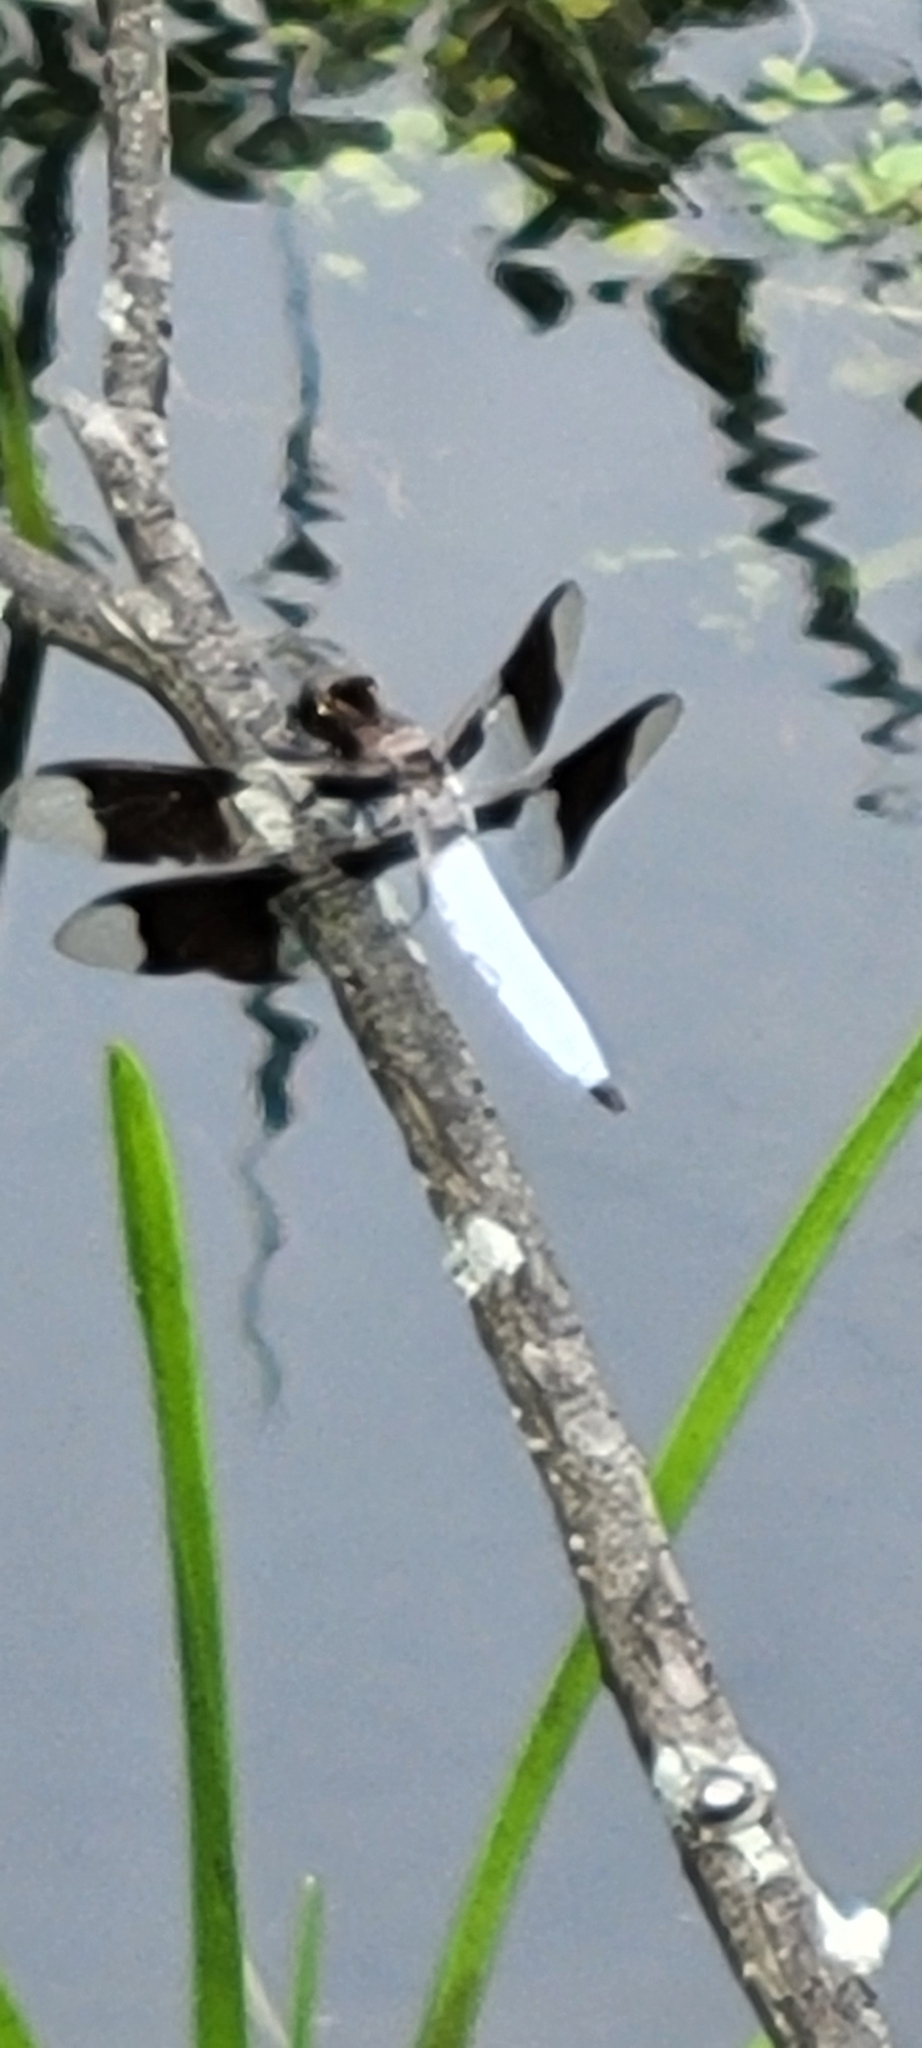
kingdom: Animalia
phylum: Arthropoda
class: Insecta
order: Odonata
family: Libellulidae
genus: Plathemis
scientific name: Plathemis lydia
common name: Common whitetail
